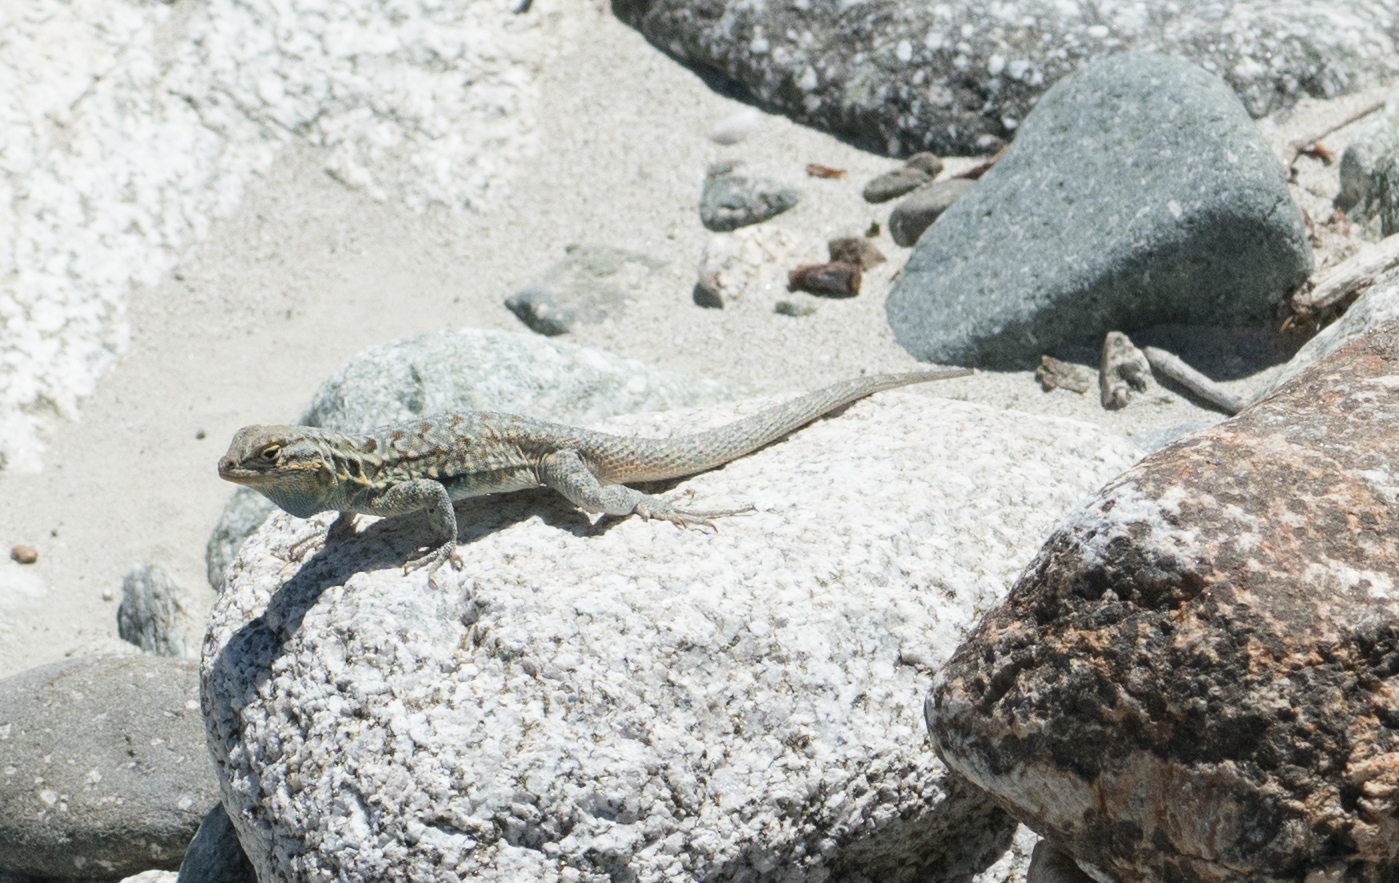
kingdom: Animalia
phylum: Chordata
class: Squamata
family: Phrynosomatidae
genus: Uta
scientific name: Uta stansburiana
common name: Side-blotched lizard
